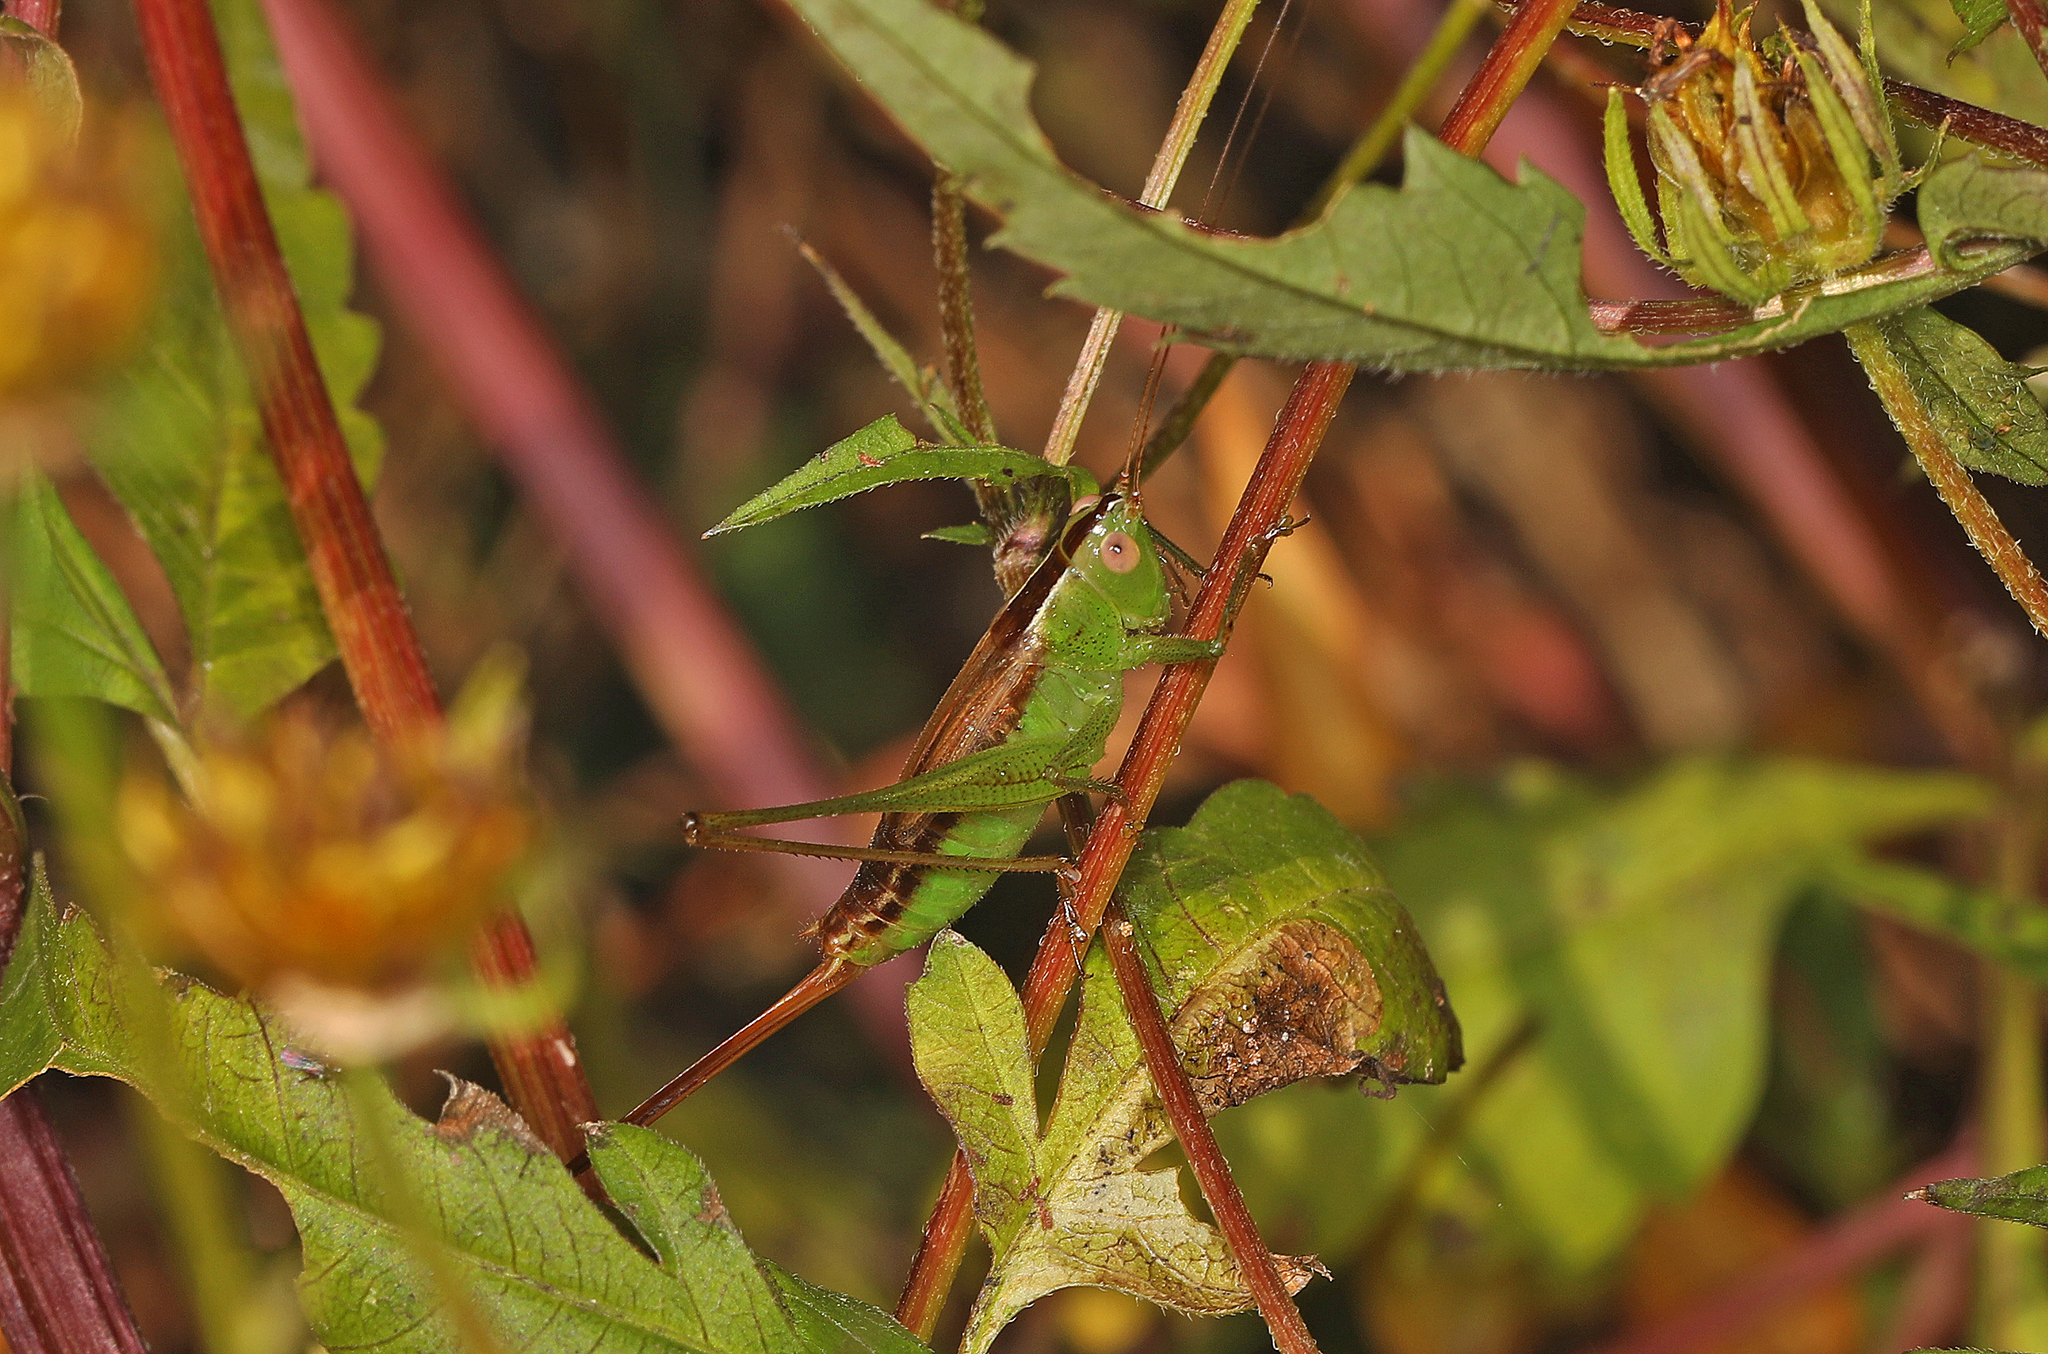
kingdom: Animalia
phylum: Arthropoda
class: Insecta
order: Orthoptera
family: Tettigoniidae
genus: Conocephalus
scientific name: Conocephalus brevipennis
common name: Short-winged meadow katydid
